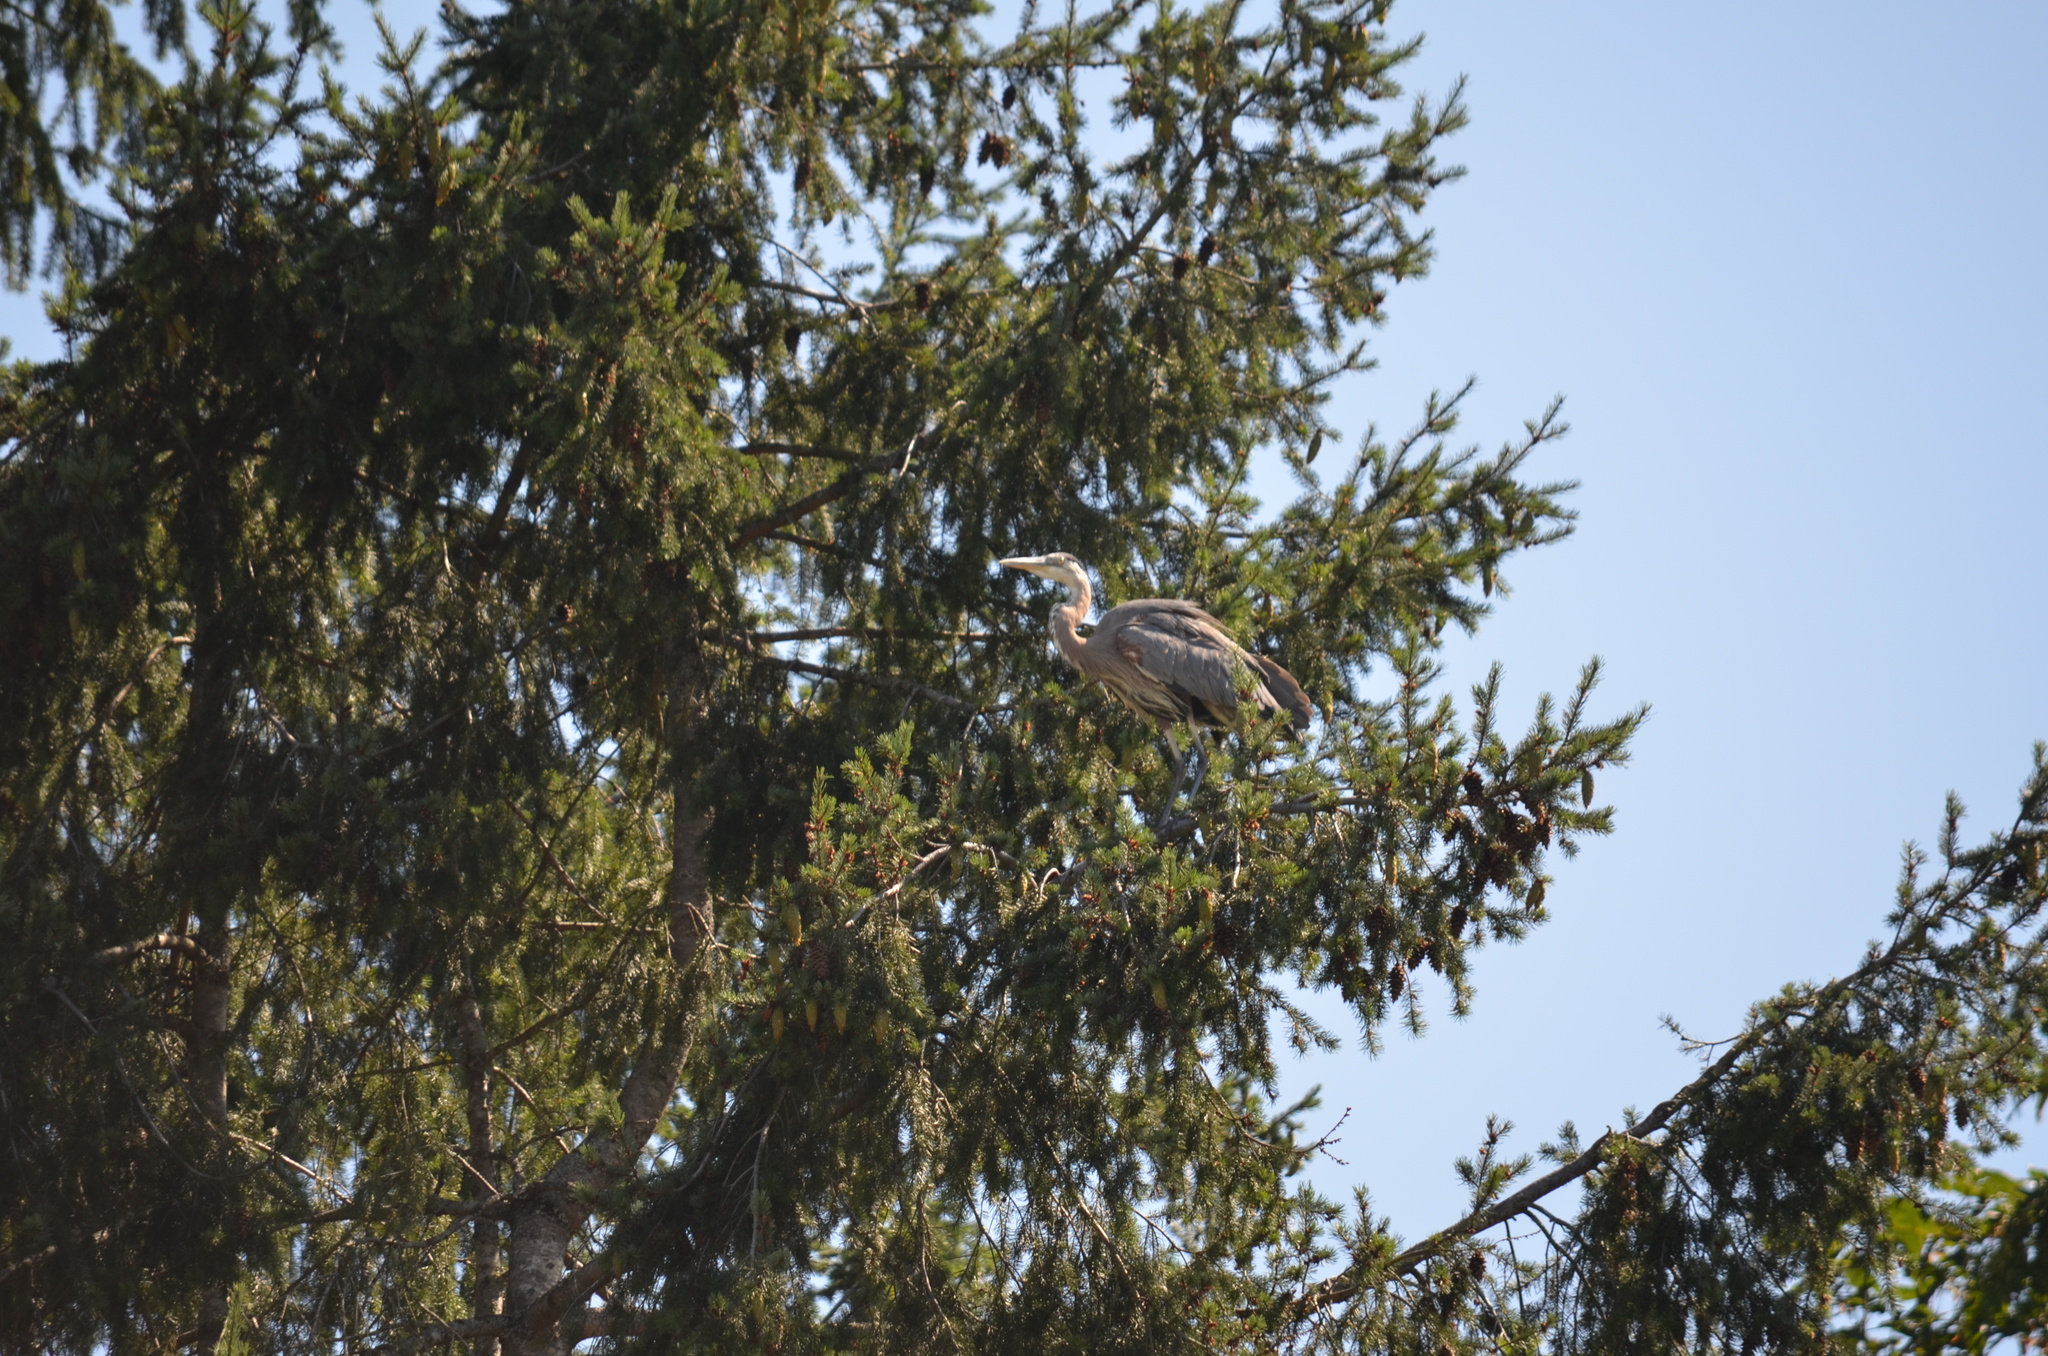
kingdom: Animalia
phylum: Chordata
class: Aves
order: Pelecaniformes
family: Ardeidae
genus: Ardea
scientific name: Ardea herodias
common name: Great blue heron
